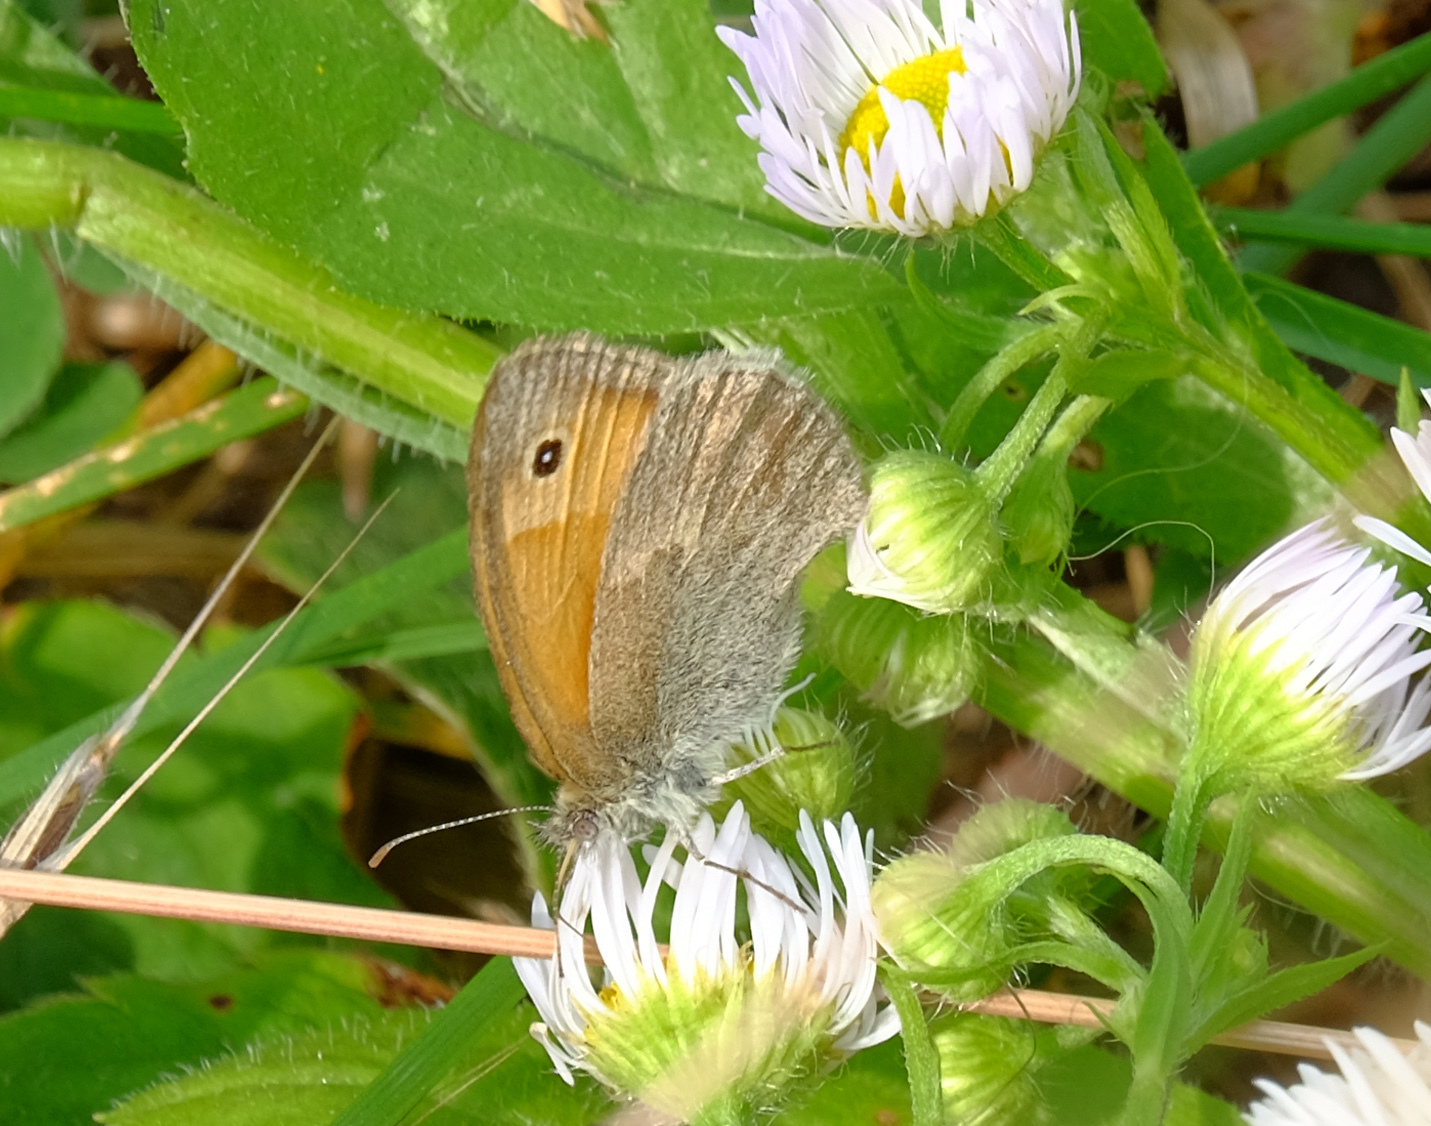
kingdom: Animalia
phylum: Arthropoda
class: Insecta
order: Lepidoptera
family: Nymphalidae
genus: Coenonympha
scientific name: Coenonympha pamphilus
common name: Small heath
